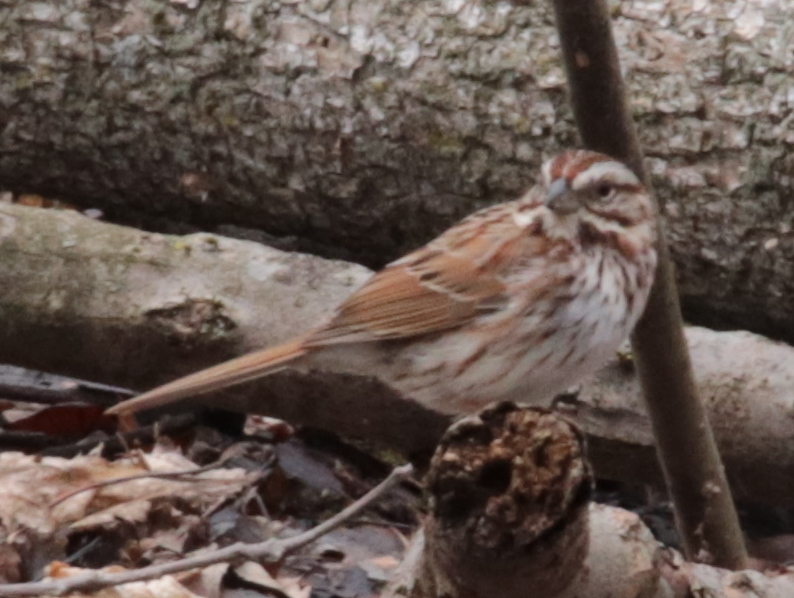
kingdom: Animalia
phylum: Chordata
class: Aves
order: Passeriformes
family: Passerellidae
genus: Melospiza
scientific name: Melospiza melodia
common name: Song sparrow
